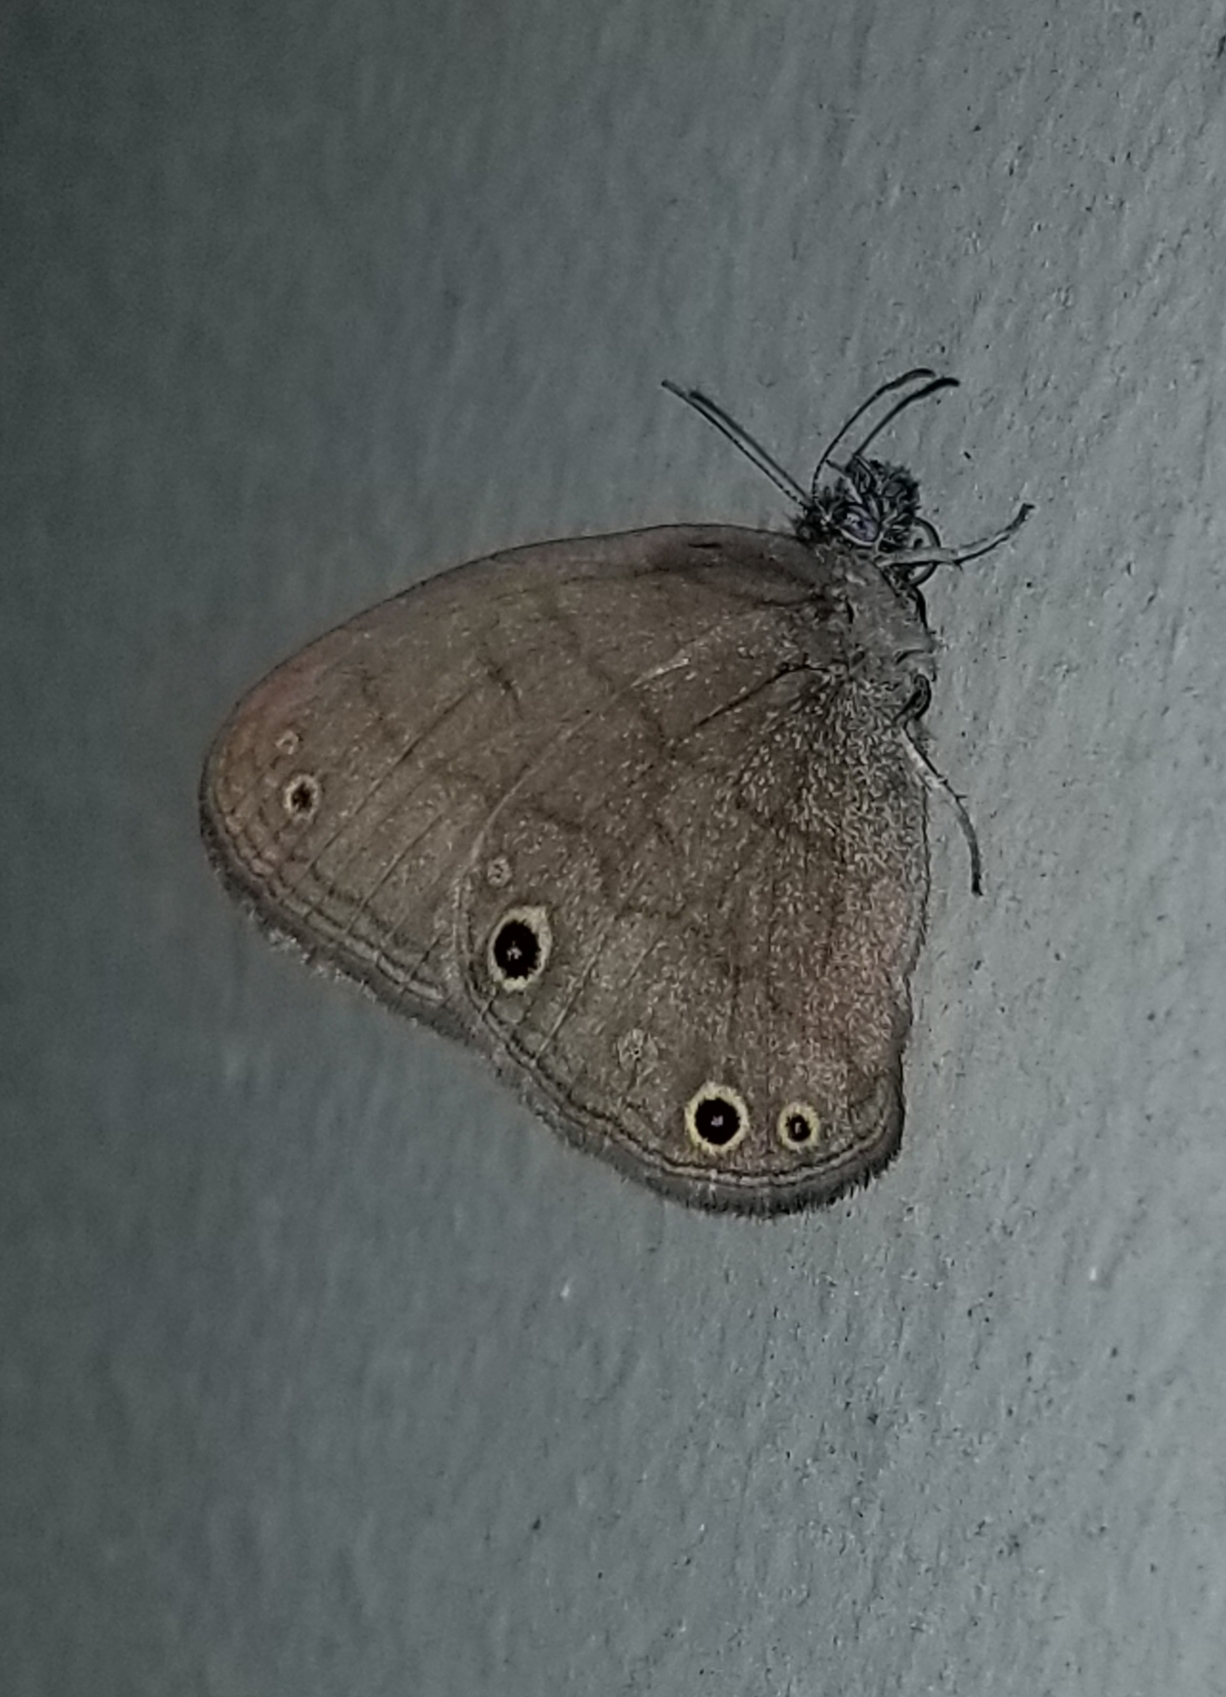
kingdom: Animalia
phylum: Arthropoda
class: Insecta
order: Lepidoptera
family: Nymphalidae
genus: Hermeuptychia
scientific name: Hermeuptychia hermes
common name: Hermes satyr
